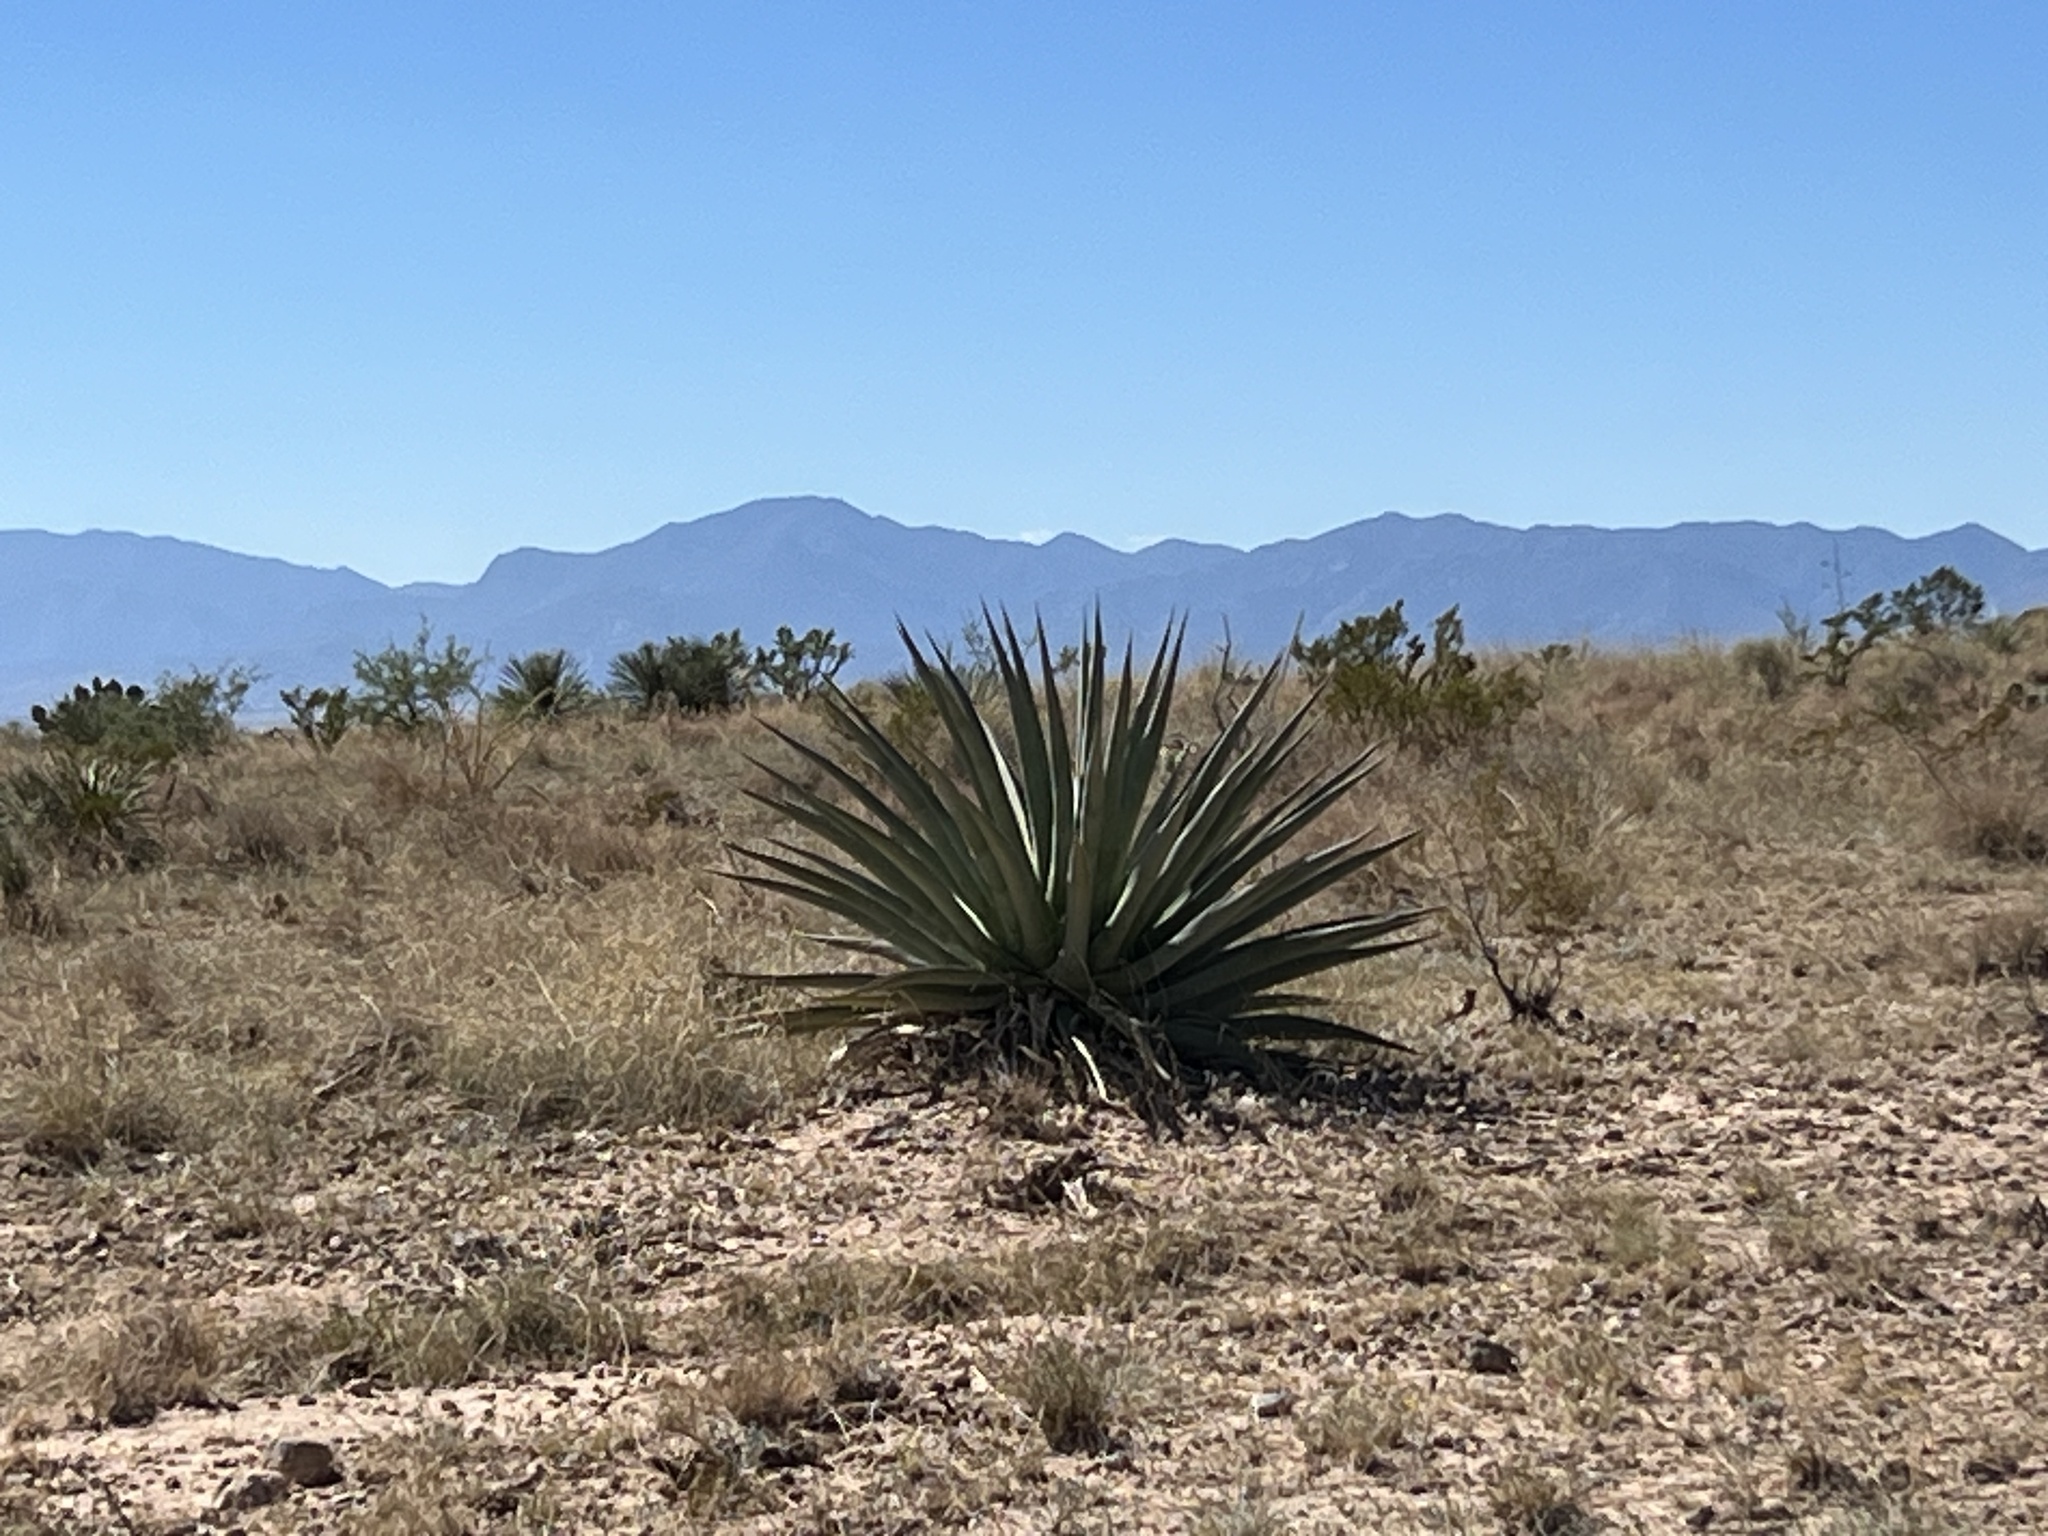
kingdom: Plantae
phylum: Tracheophyta
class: Liliopsida
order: Asparagales
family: Asparagaceae
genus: Agave
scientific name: Agave palmeri
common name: Palmer agave
